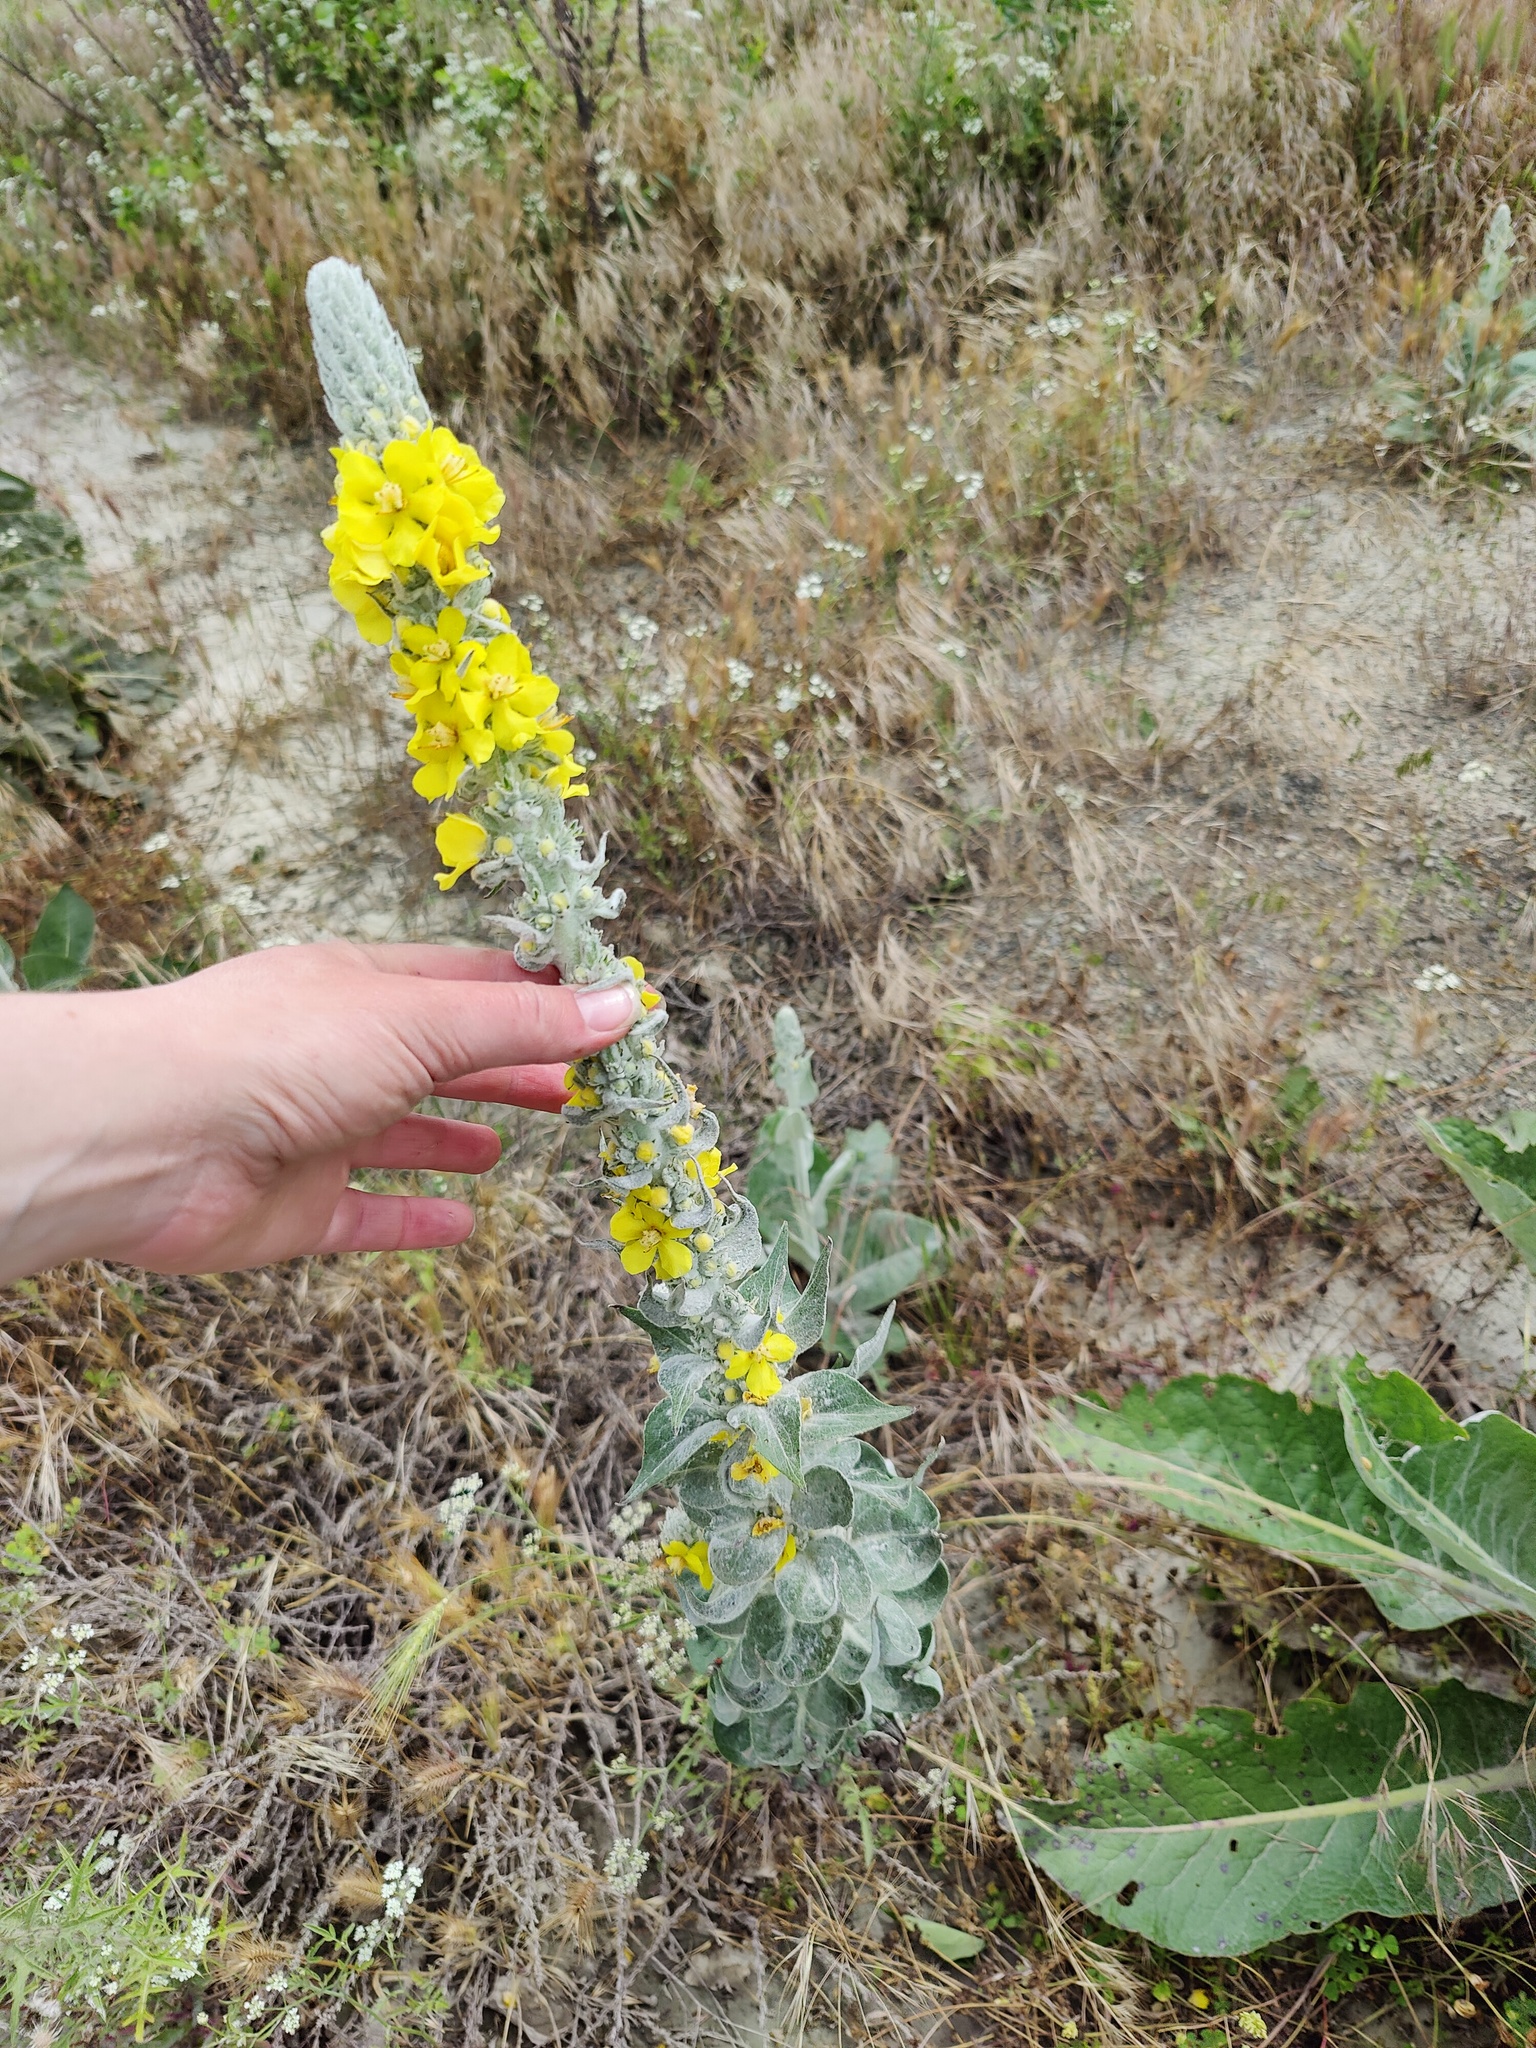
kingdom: Plantae
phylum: Tracheophyta
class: Magnoliopsida
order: Lamiales
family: Scrophulariaceae
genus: Verbascum
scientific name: Verbascum gnaphalodes
